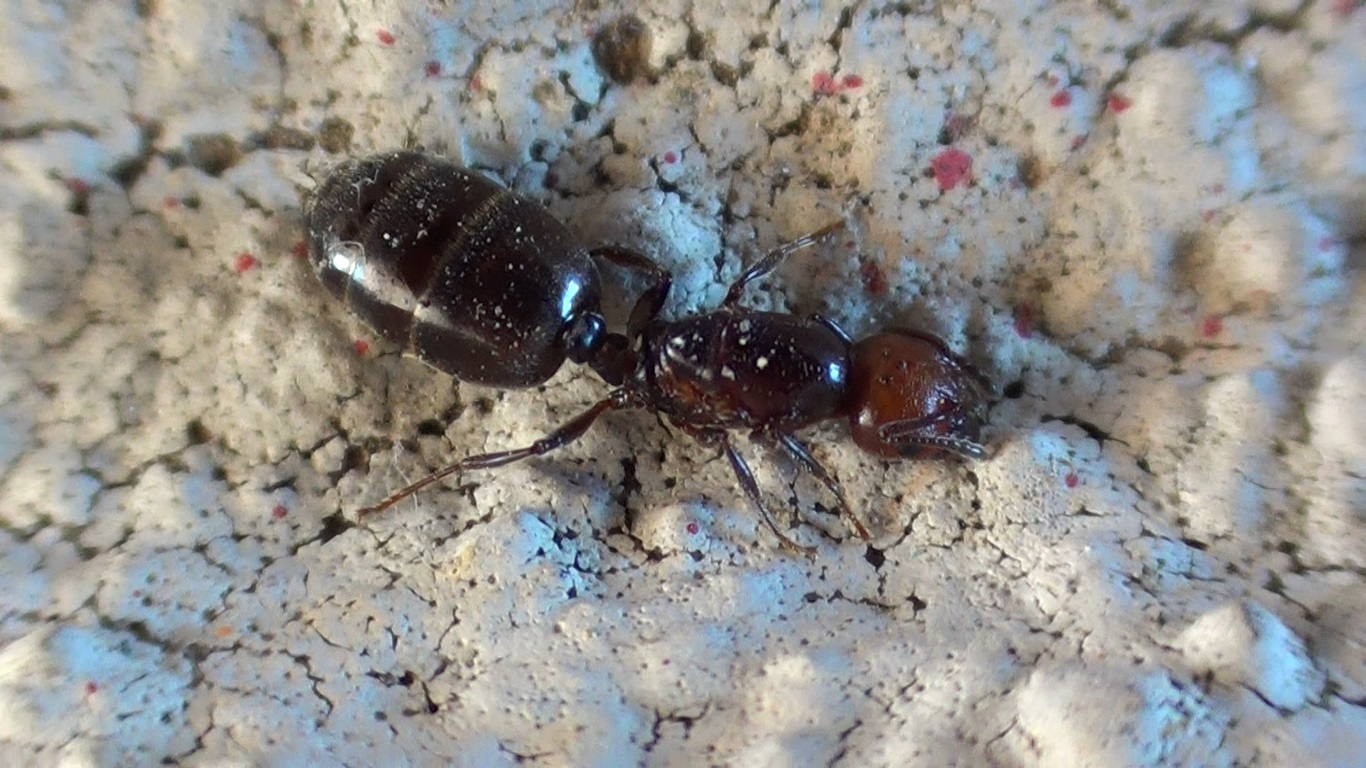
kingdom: Animalia
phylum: Arthropoda
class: Insecta
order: Hymenoptera
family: Formicidae
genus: Crematogaster
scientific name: Crematogaster scutellaris
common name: Fourmi du liège
